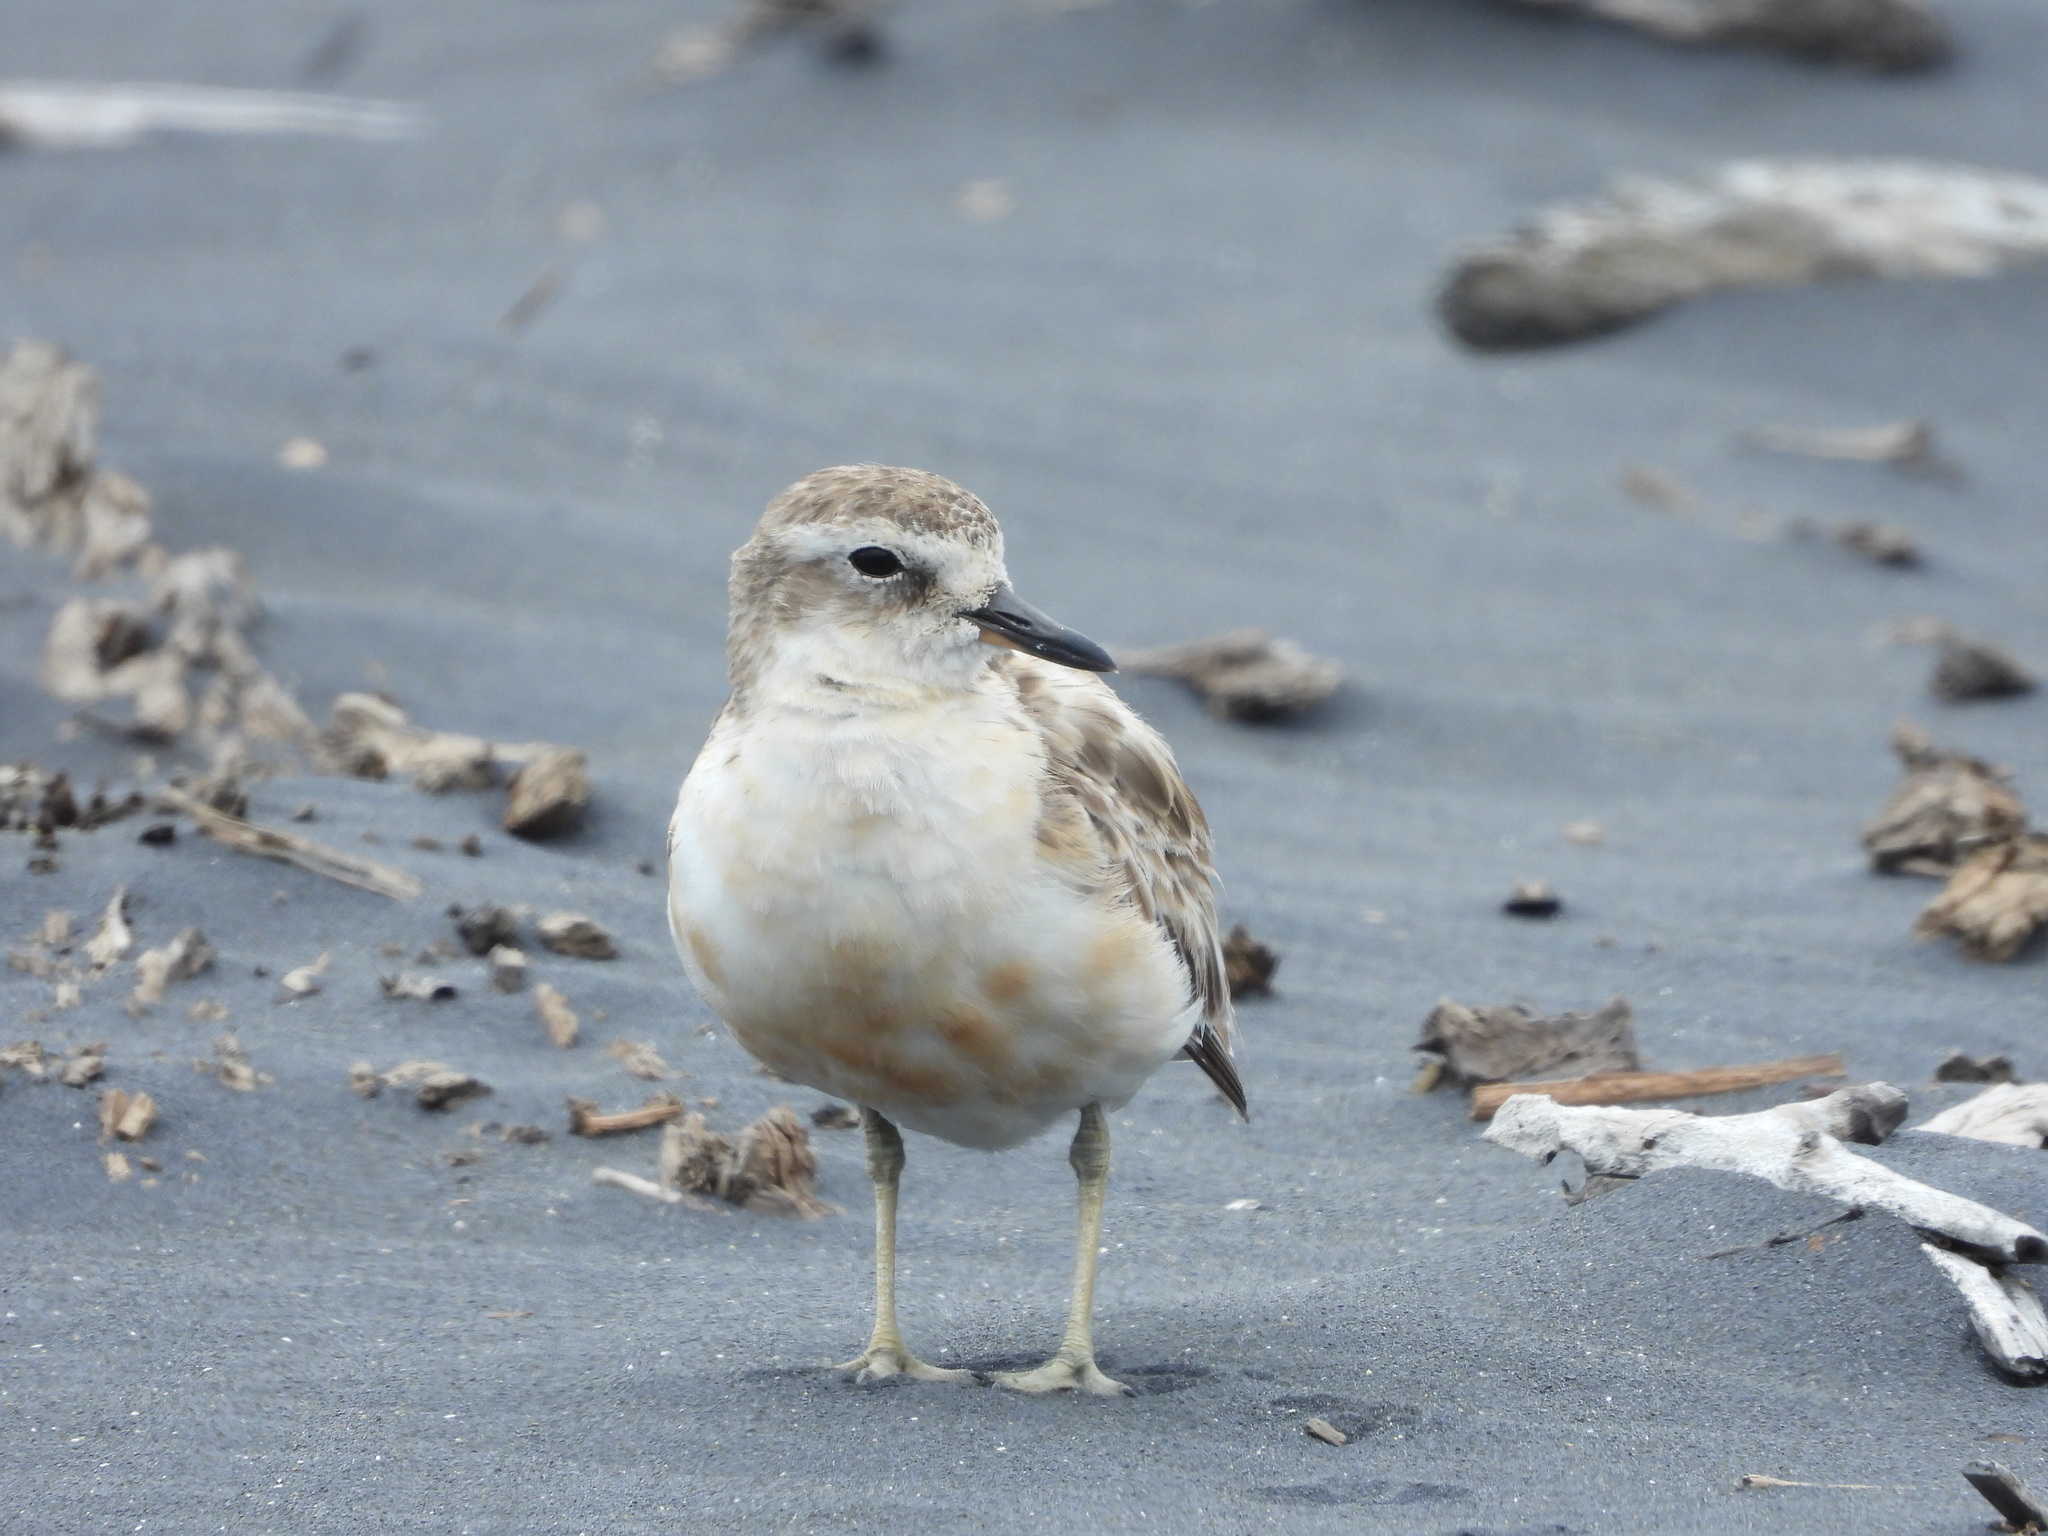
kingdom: Animalia
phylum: Chordata
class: Aves
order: Charadriiformes
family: Charadriidae
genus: Anarhynchus
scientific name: Anarhynchus
